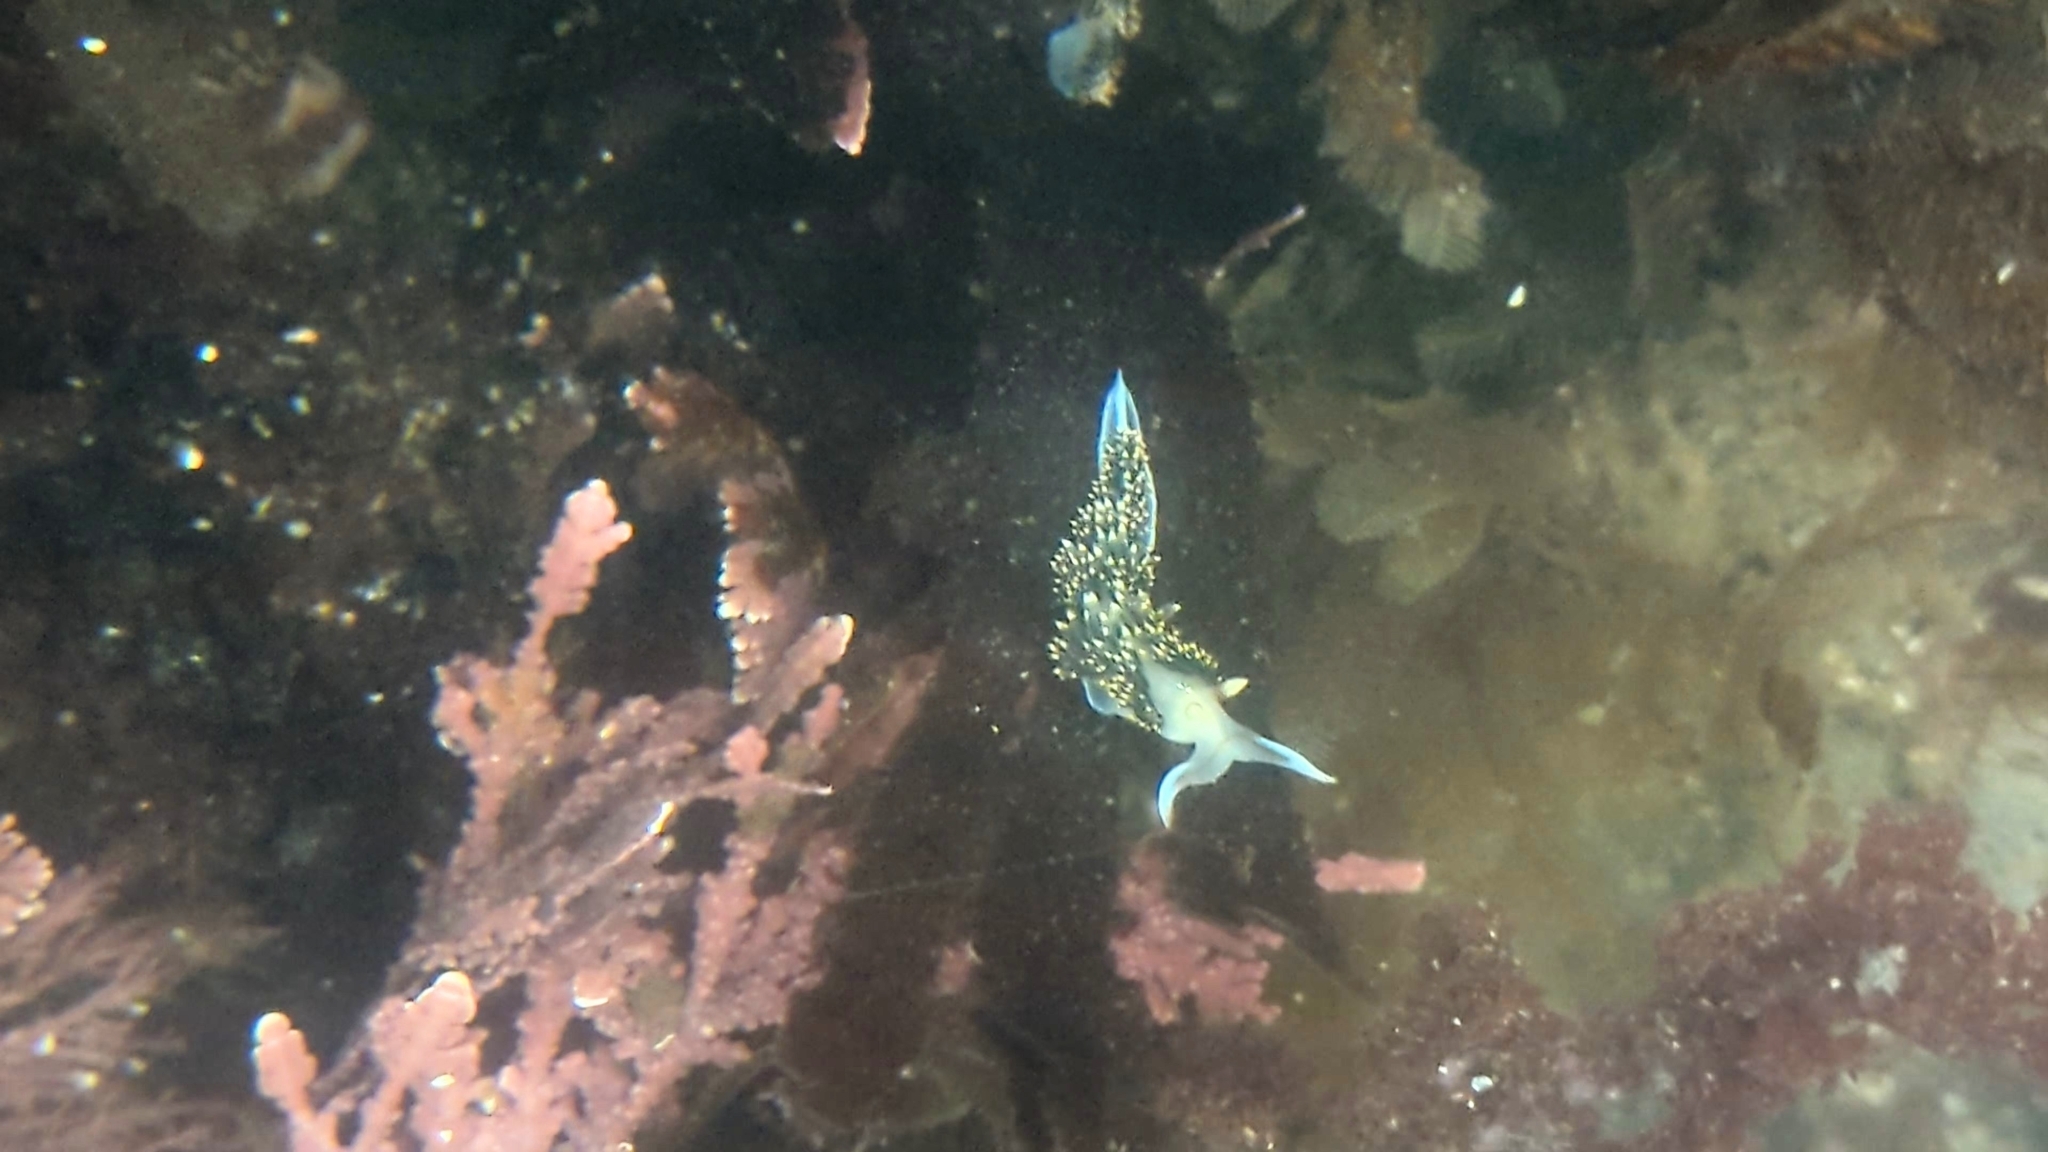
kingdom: Animalia
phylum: Mollusca
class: Gastropoda
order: Nudibranchia
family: Facelinidae
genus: Phidiana
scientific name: Phidiana hiltoni
